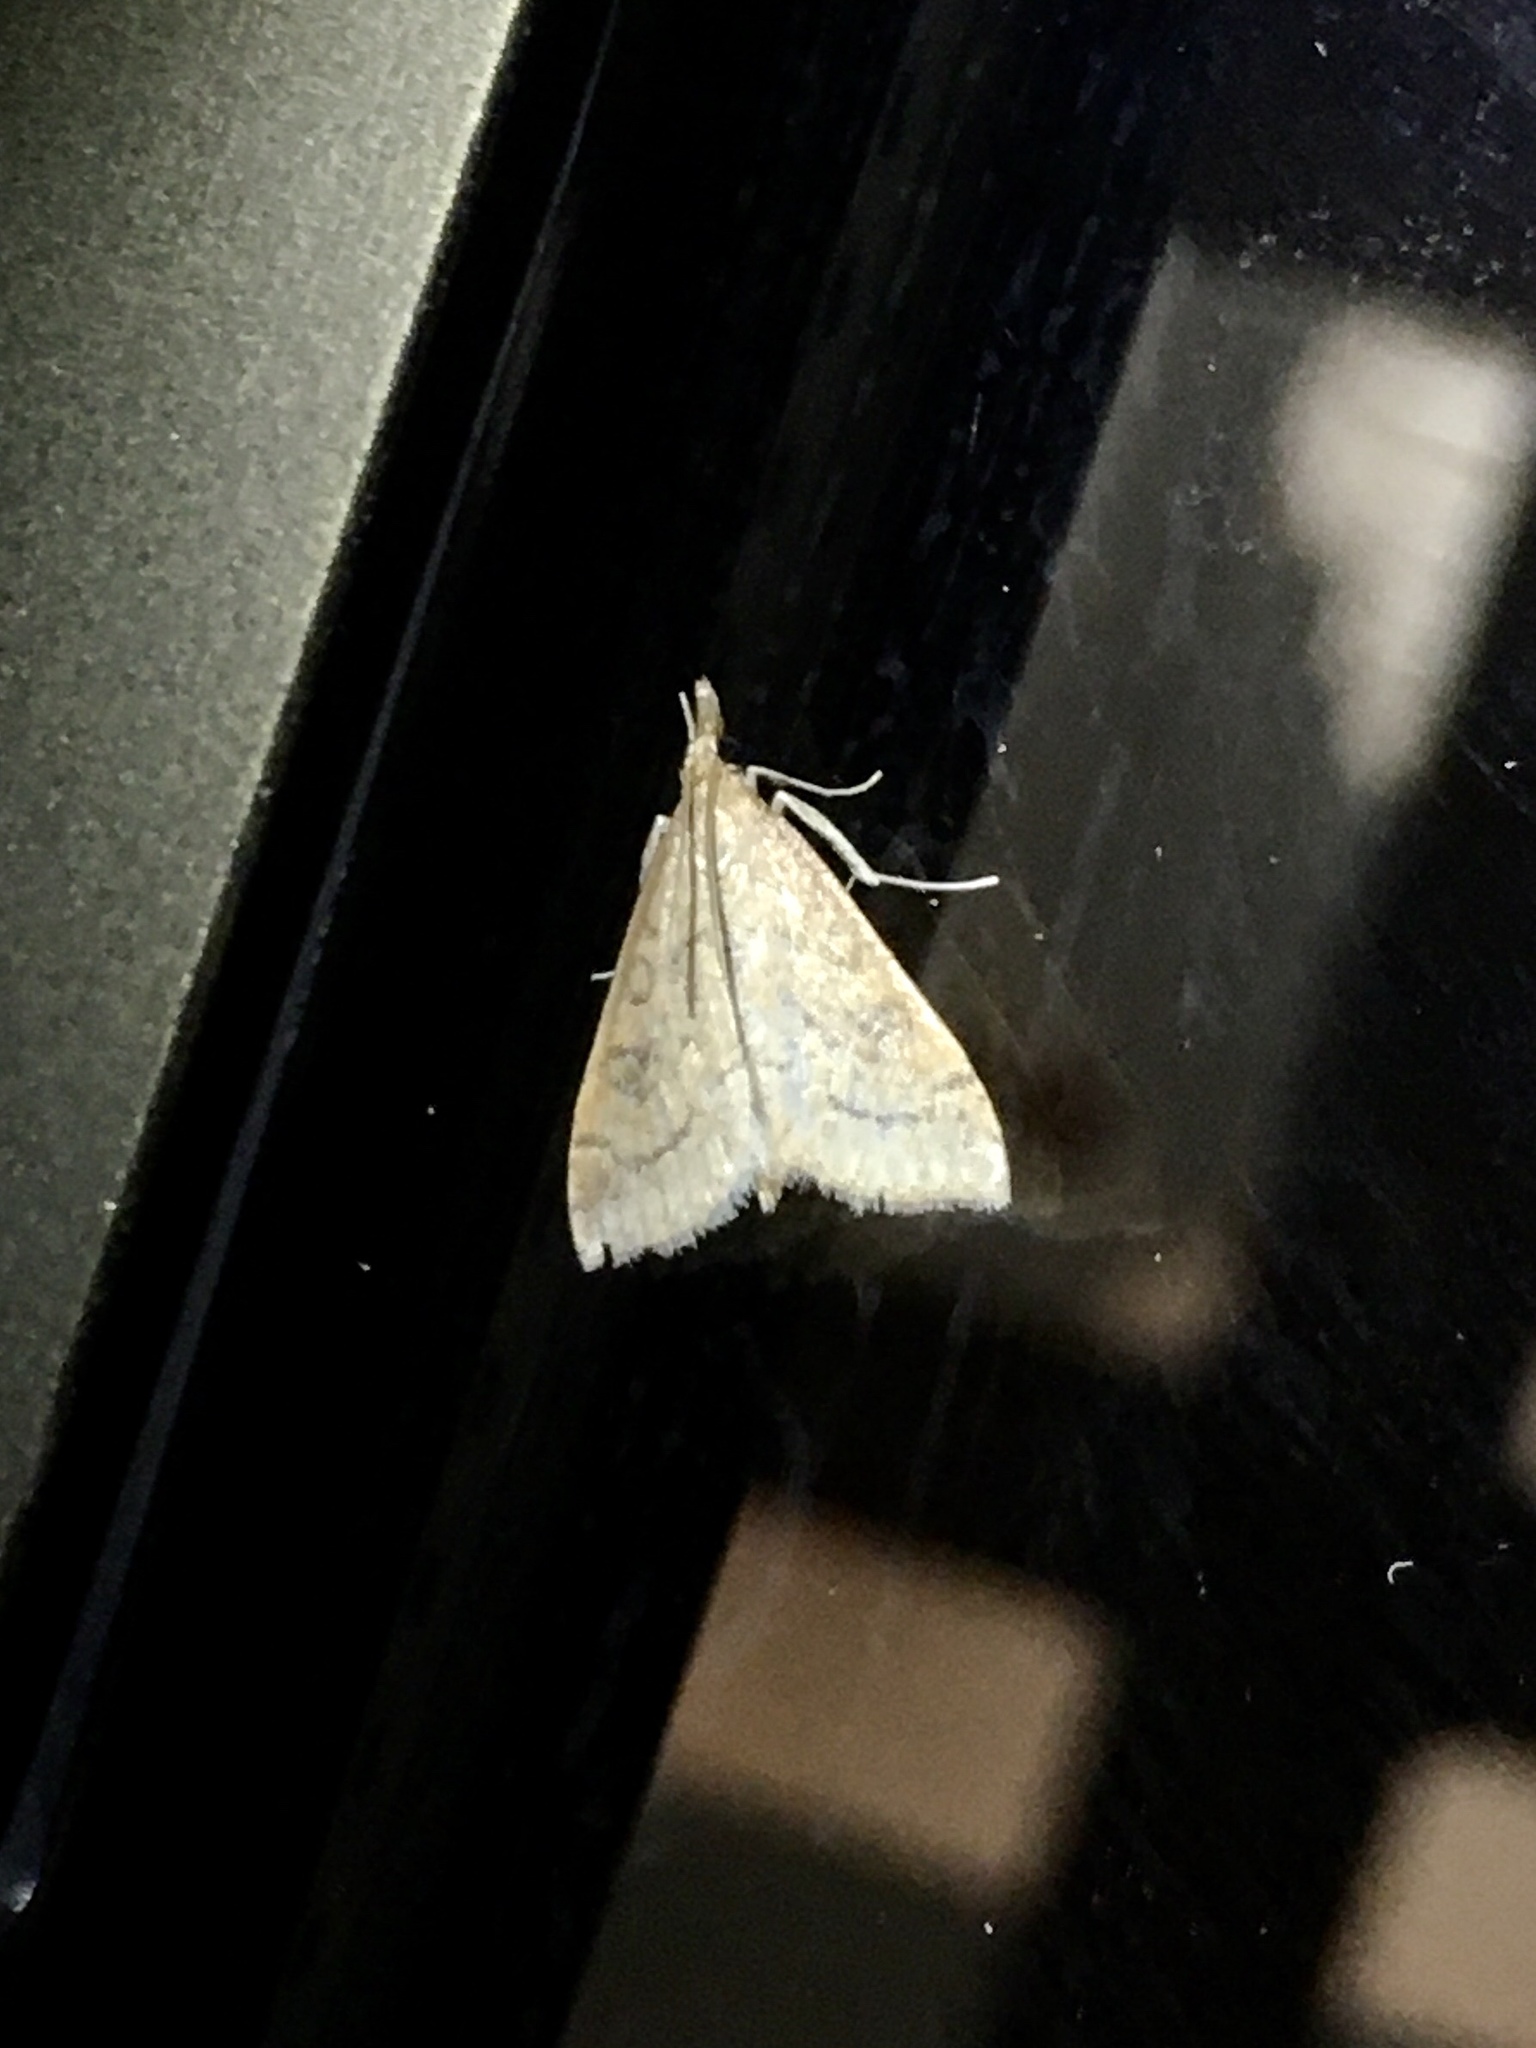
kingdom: Animalia
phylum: Arthropoda
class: Insecta
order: Lepidoptera
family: Crambidae
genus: Udea
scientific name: Udea rubigalis
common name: Celery leaftier moth
